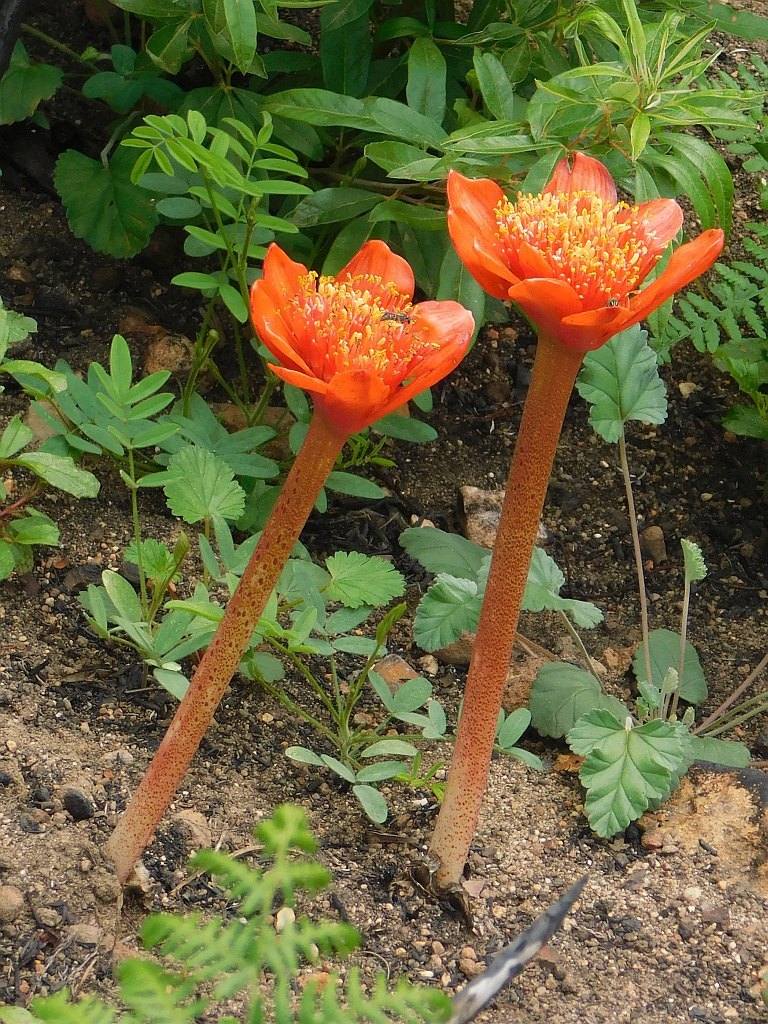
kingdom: Plantae
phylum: Tracheophyta
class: Liliopsida
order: Asparagales
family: Amaryllidaceae
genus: Haemanthus
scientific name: Haemanthus coccineus
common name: Cape-tulip
